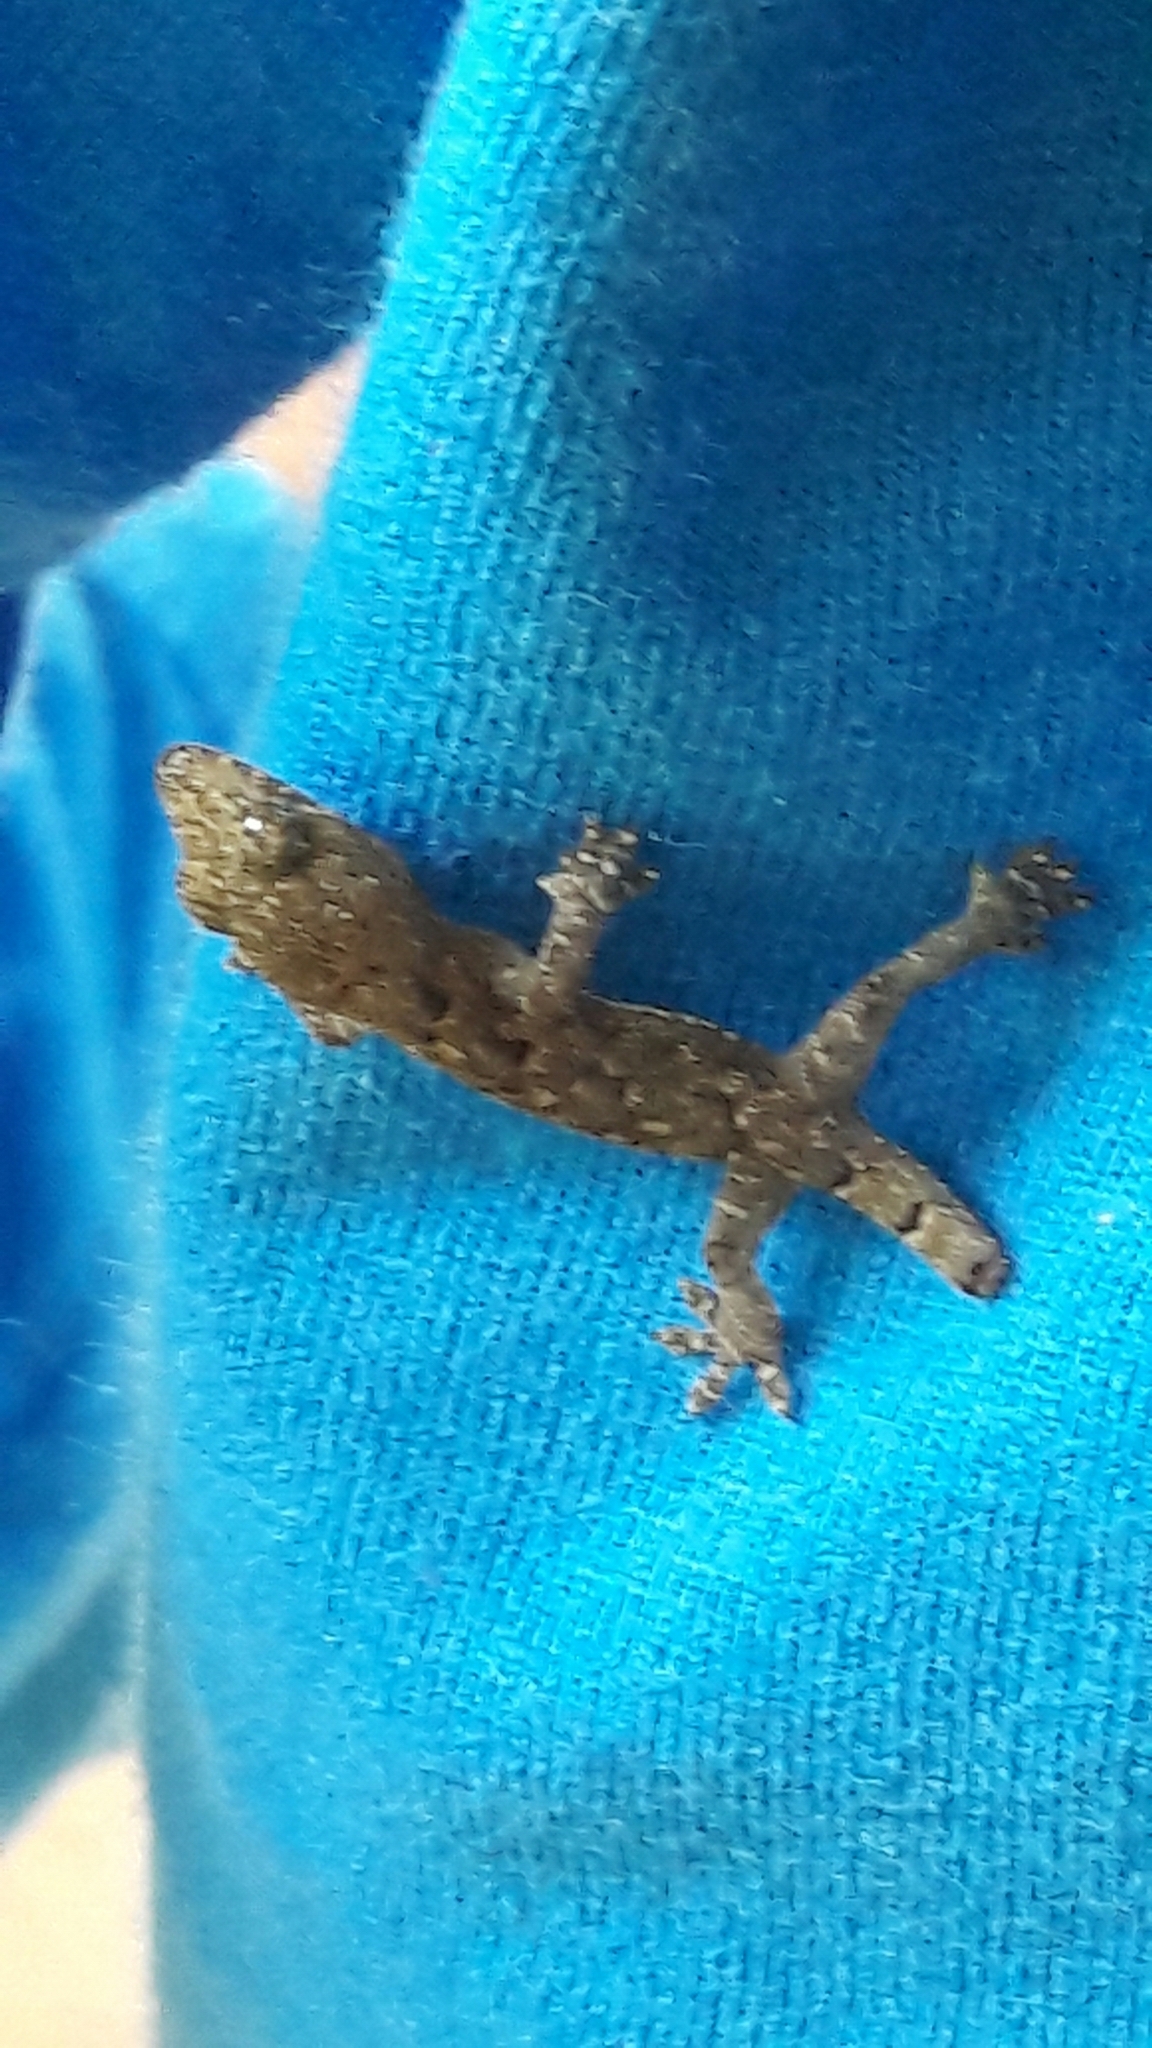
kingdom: Animalia
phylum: Chordata
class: Squamata
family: Gekkonidae
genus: Hemidactylus
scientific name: Hemidactylus mabouia
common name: House gecko
